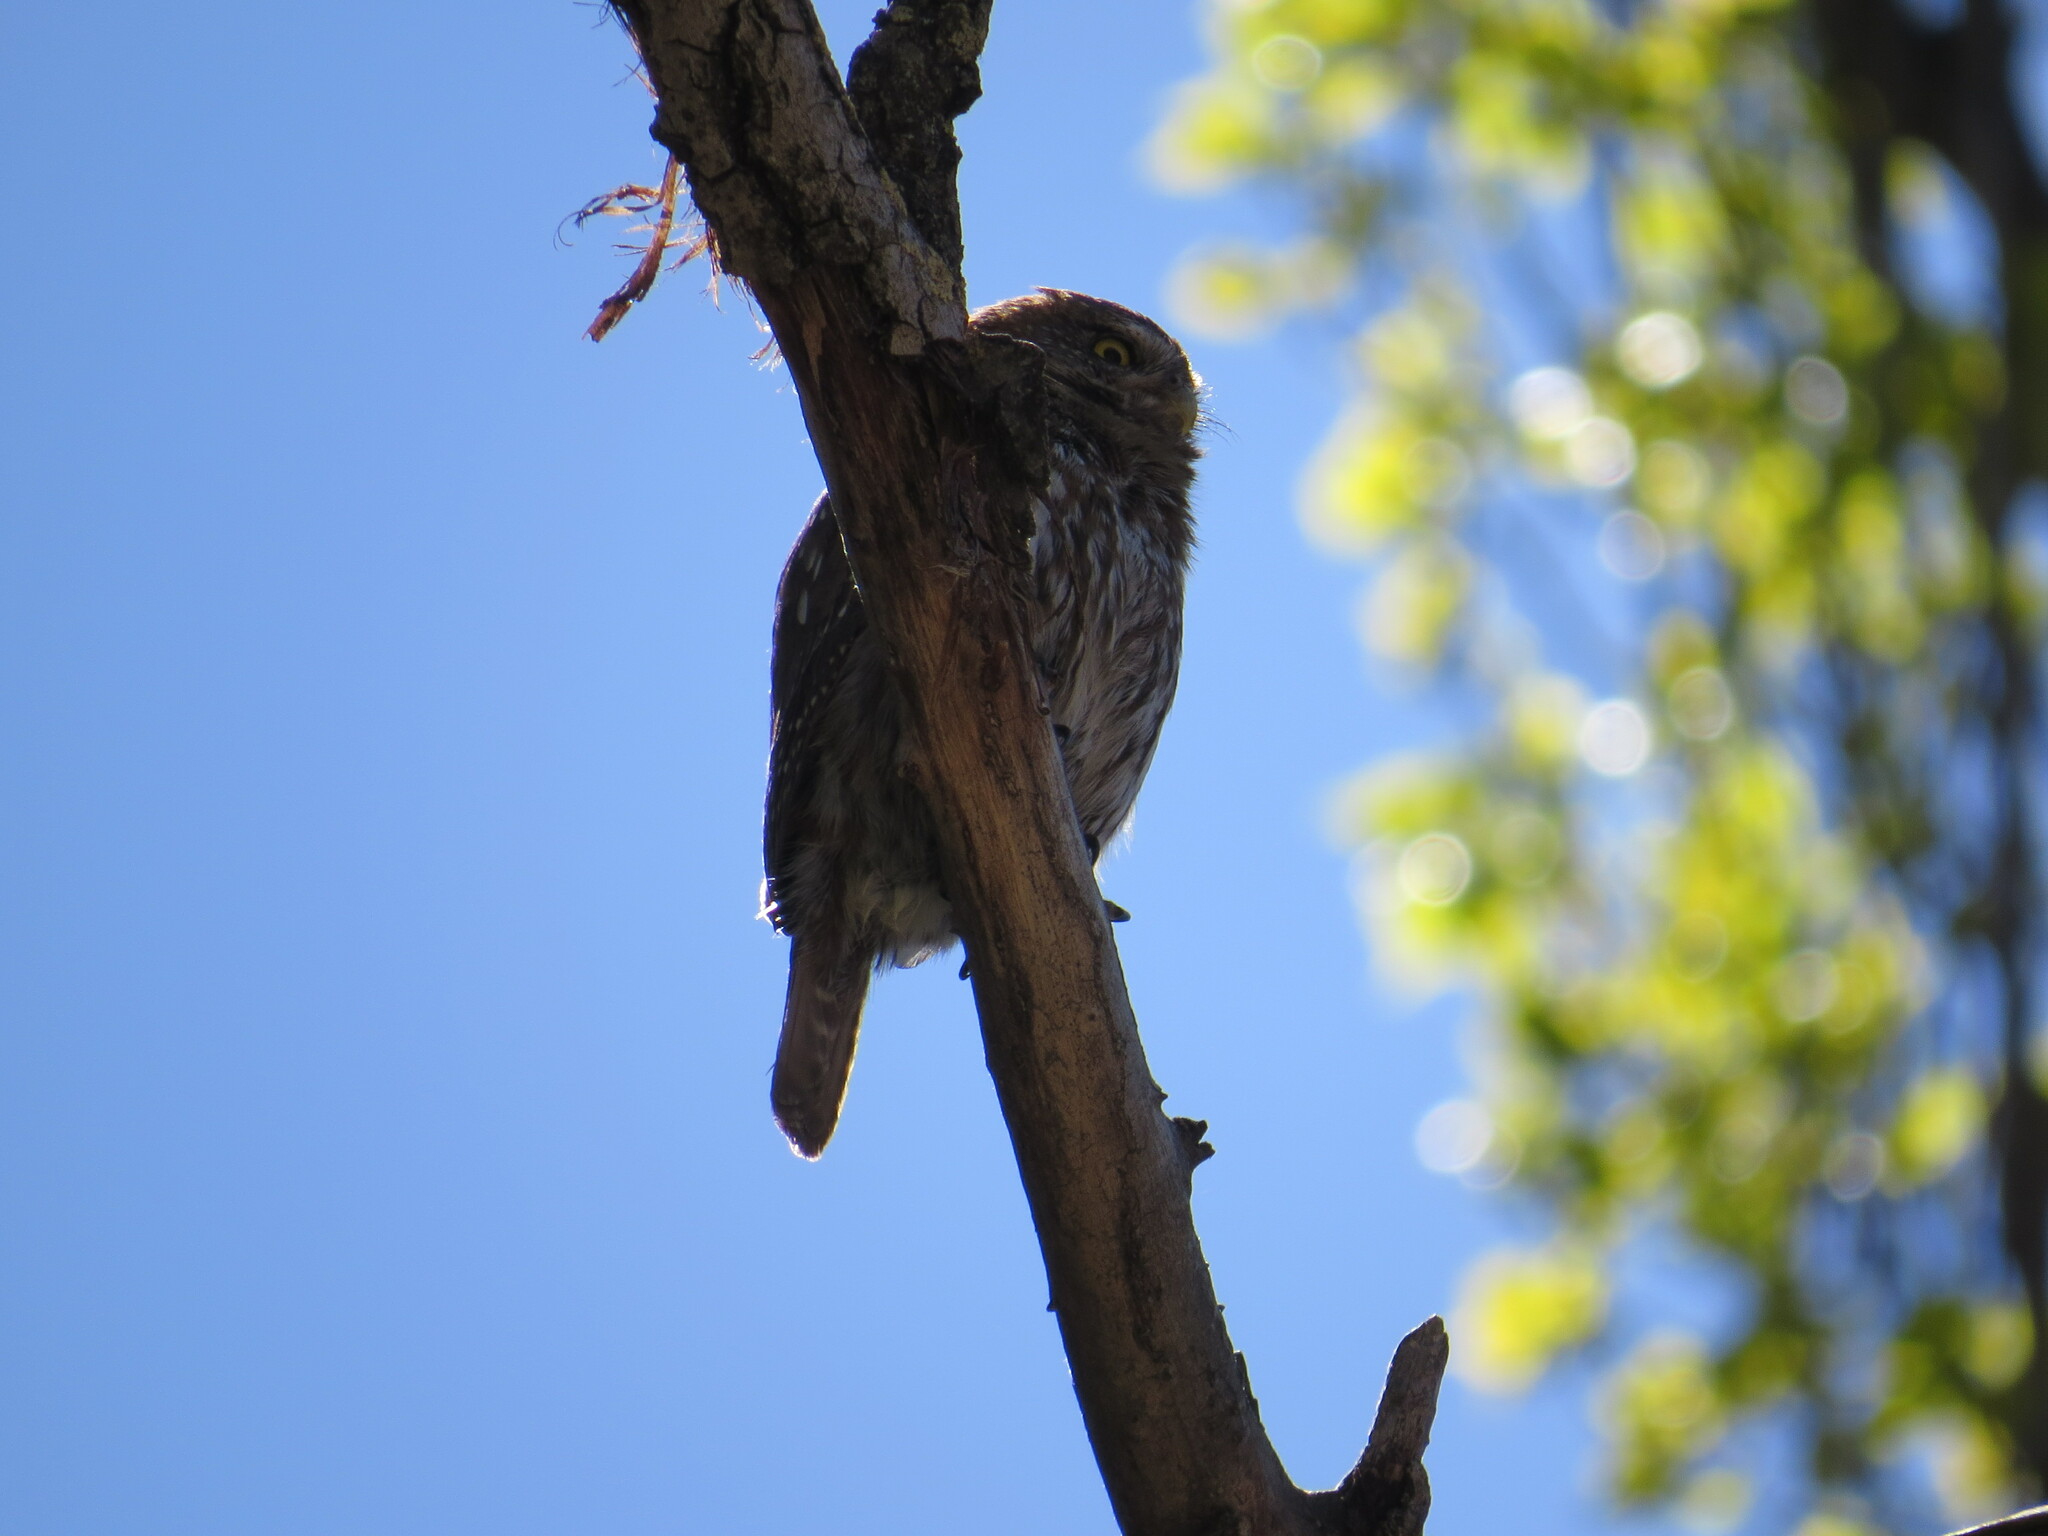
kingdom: Animalia
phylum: Chordata
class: Aves
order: Strigiformes
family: Strigidae
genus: Glaucidium
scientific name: Glaucidium nana
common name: Austral pygmy-owl
